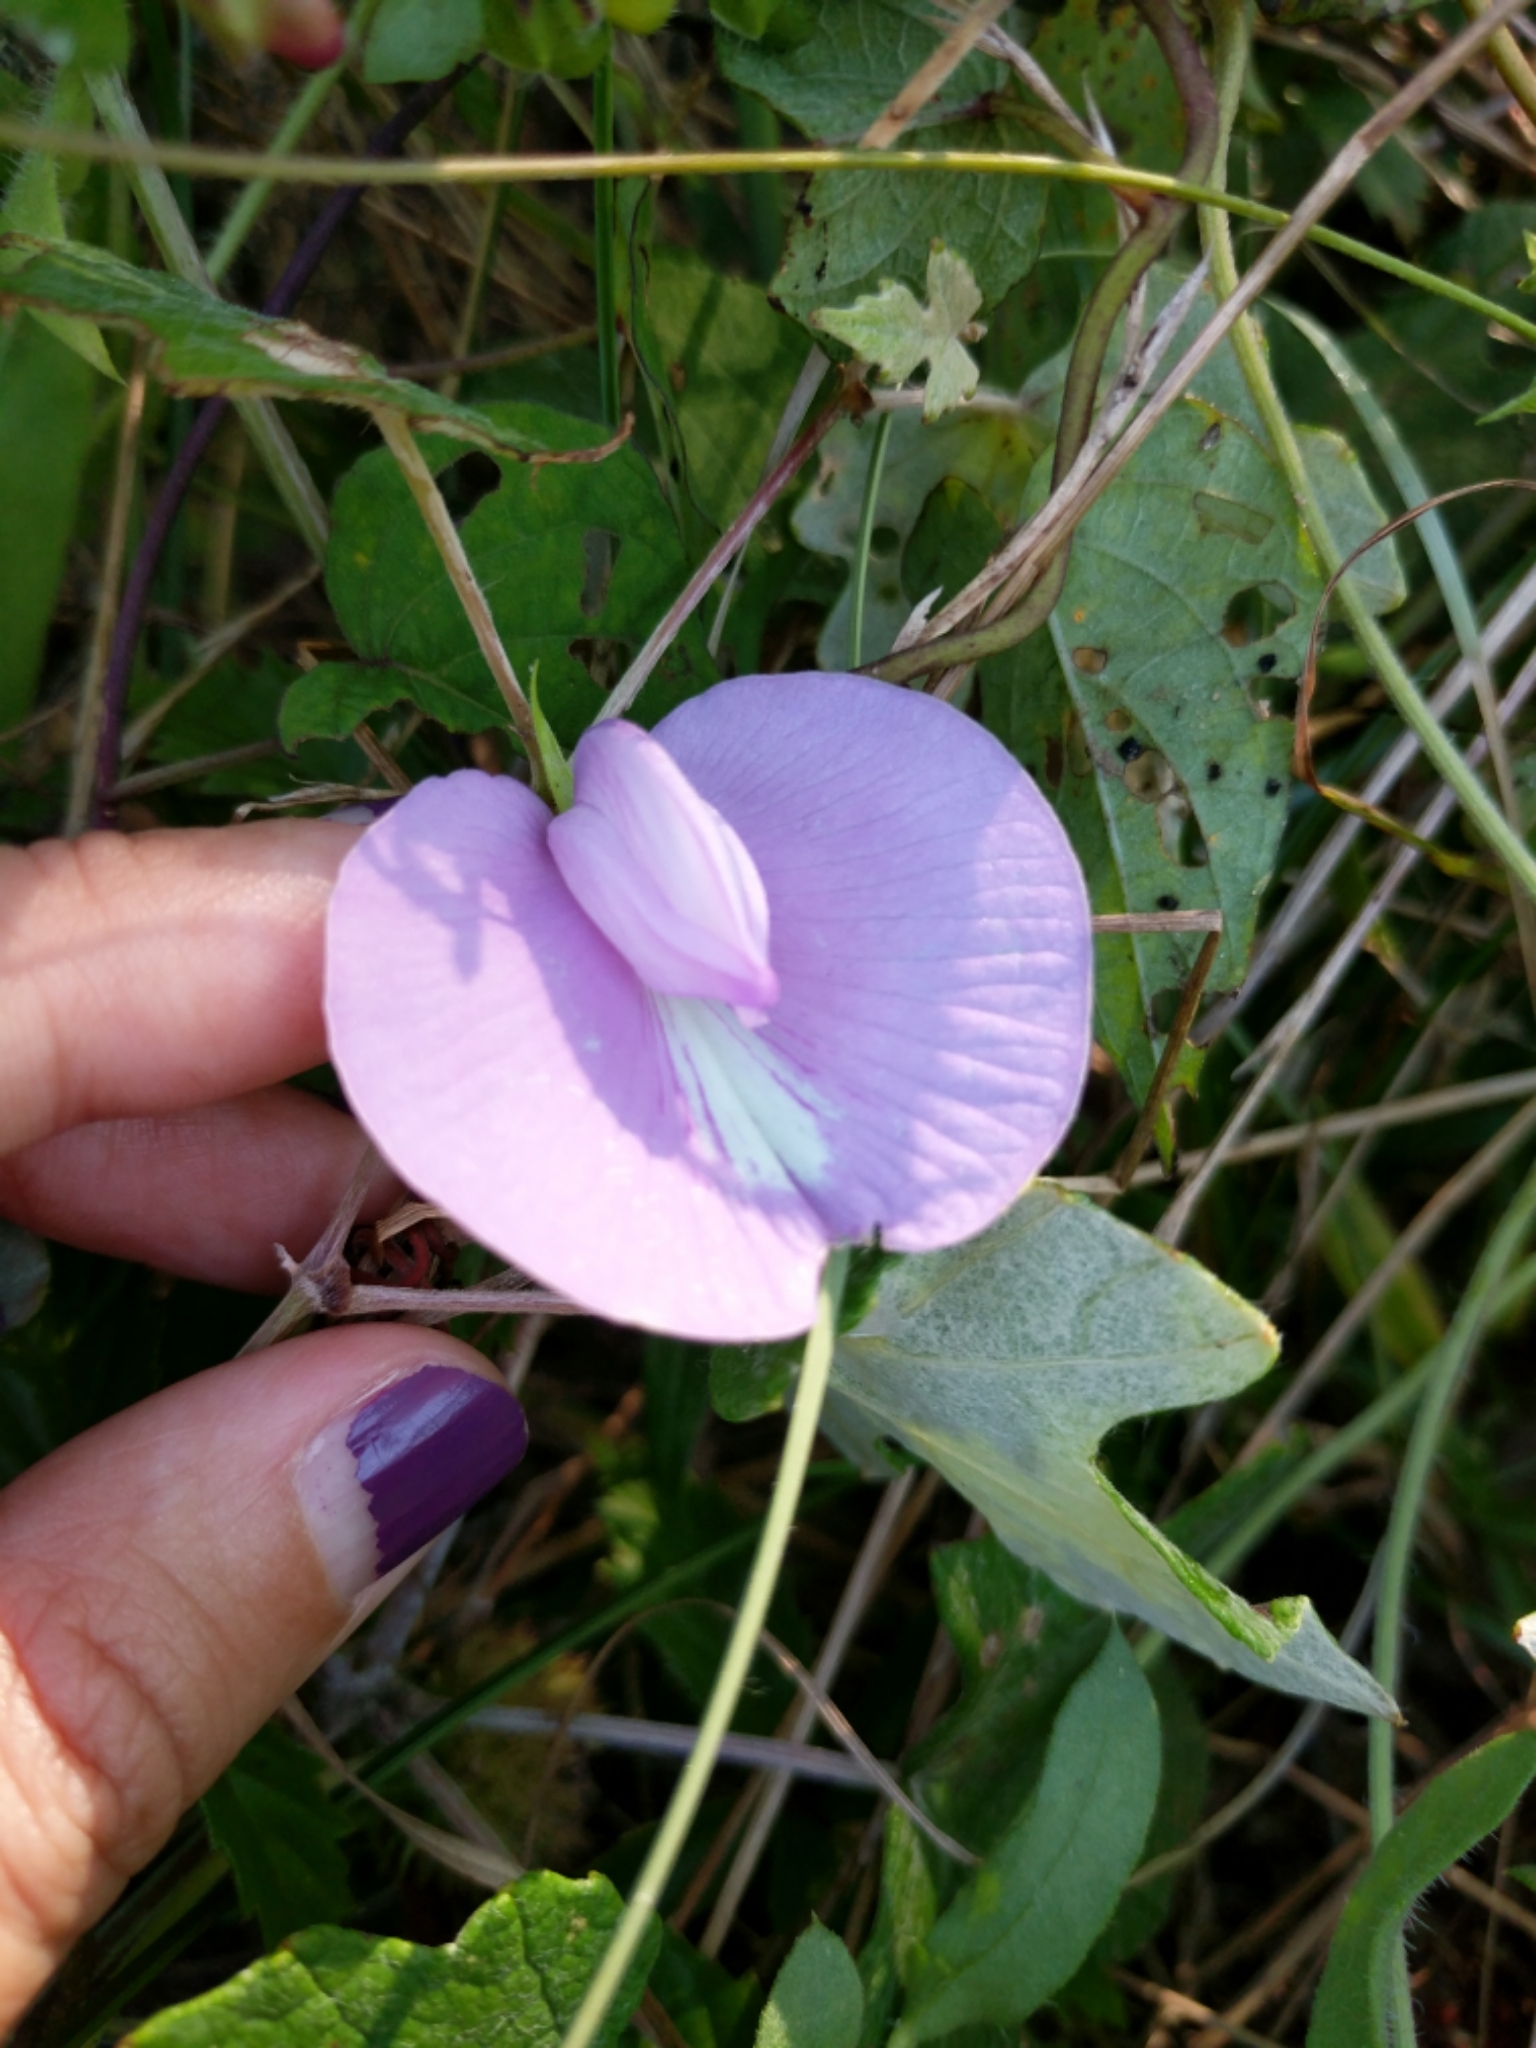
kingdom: Plantae
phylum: Tracheophyta
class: Magnoliopsida
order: Fabales
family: Fabaceae
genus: Centrosema
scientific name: Centrosema virginianum
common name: Butterfly-pea
